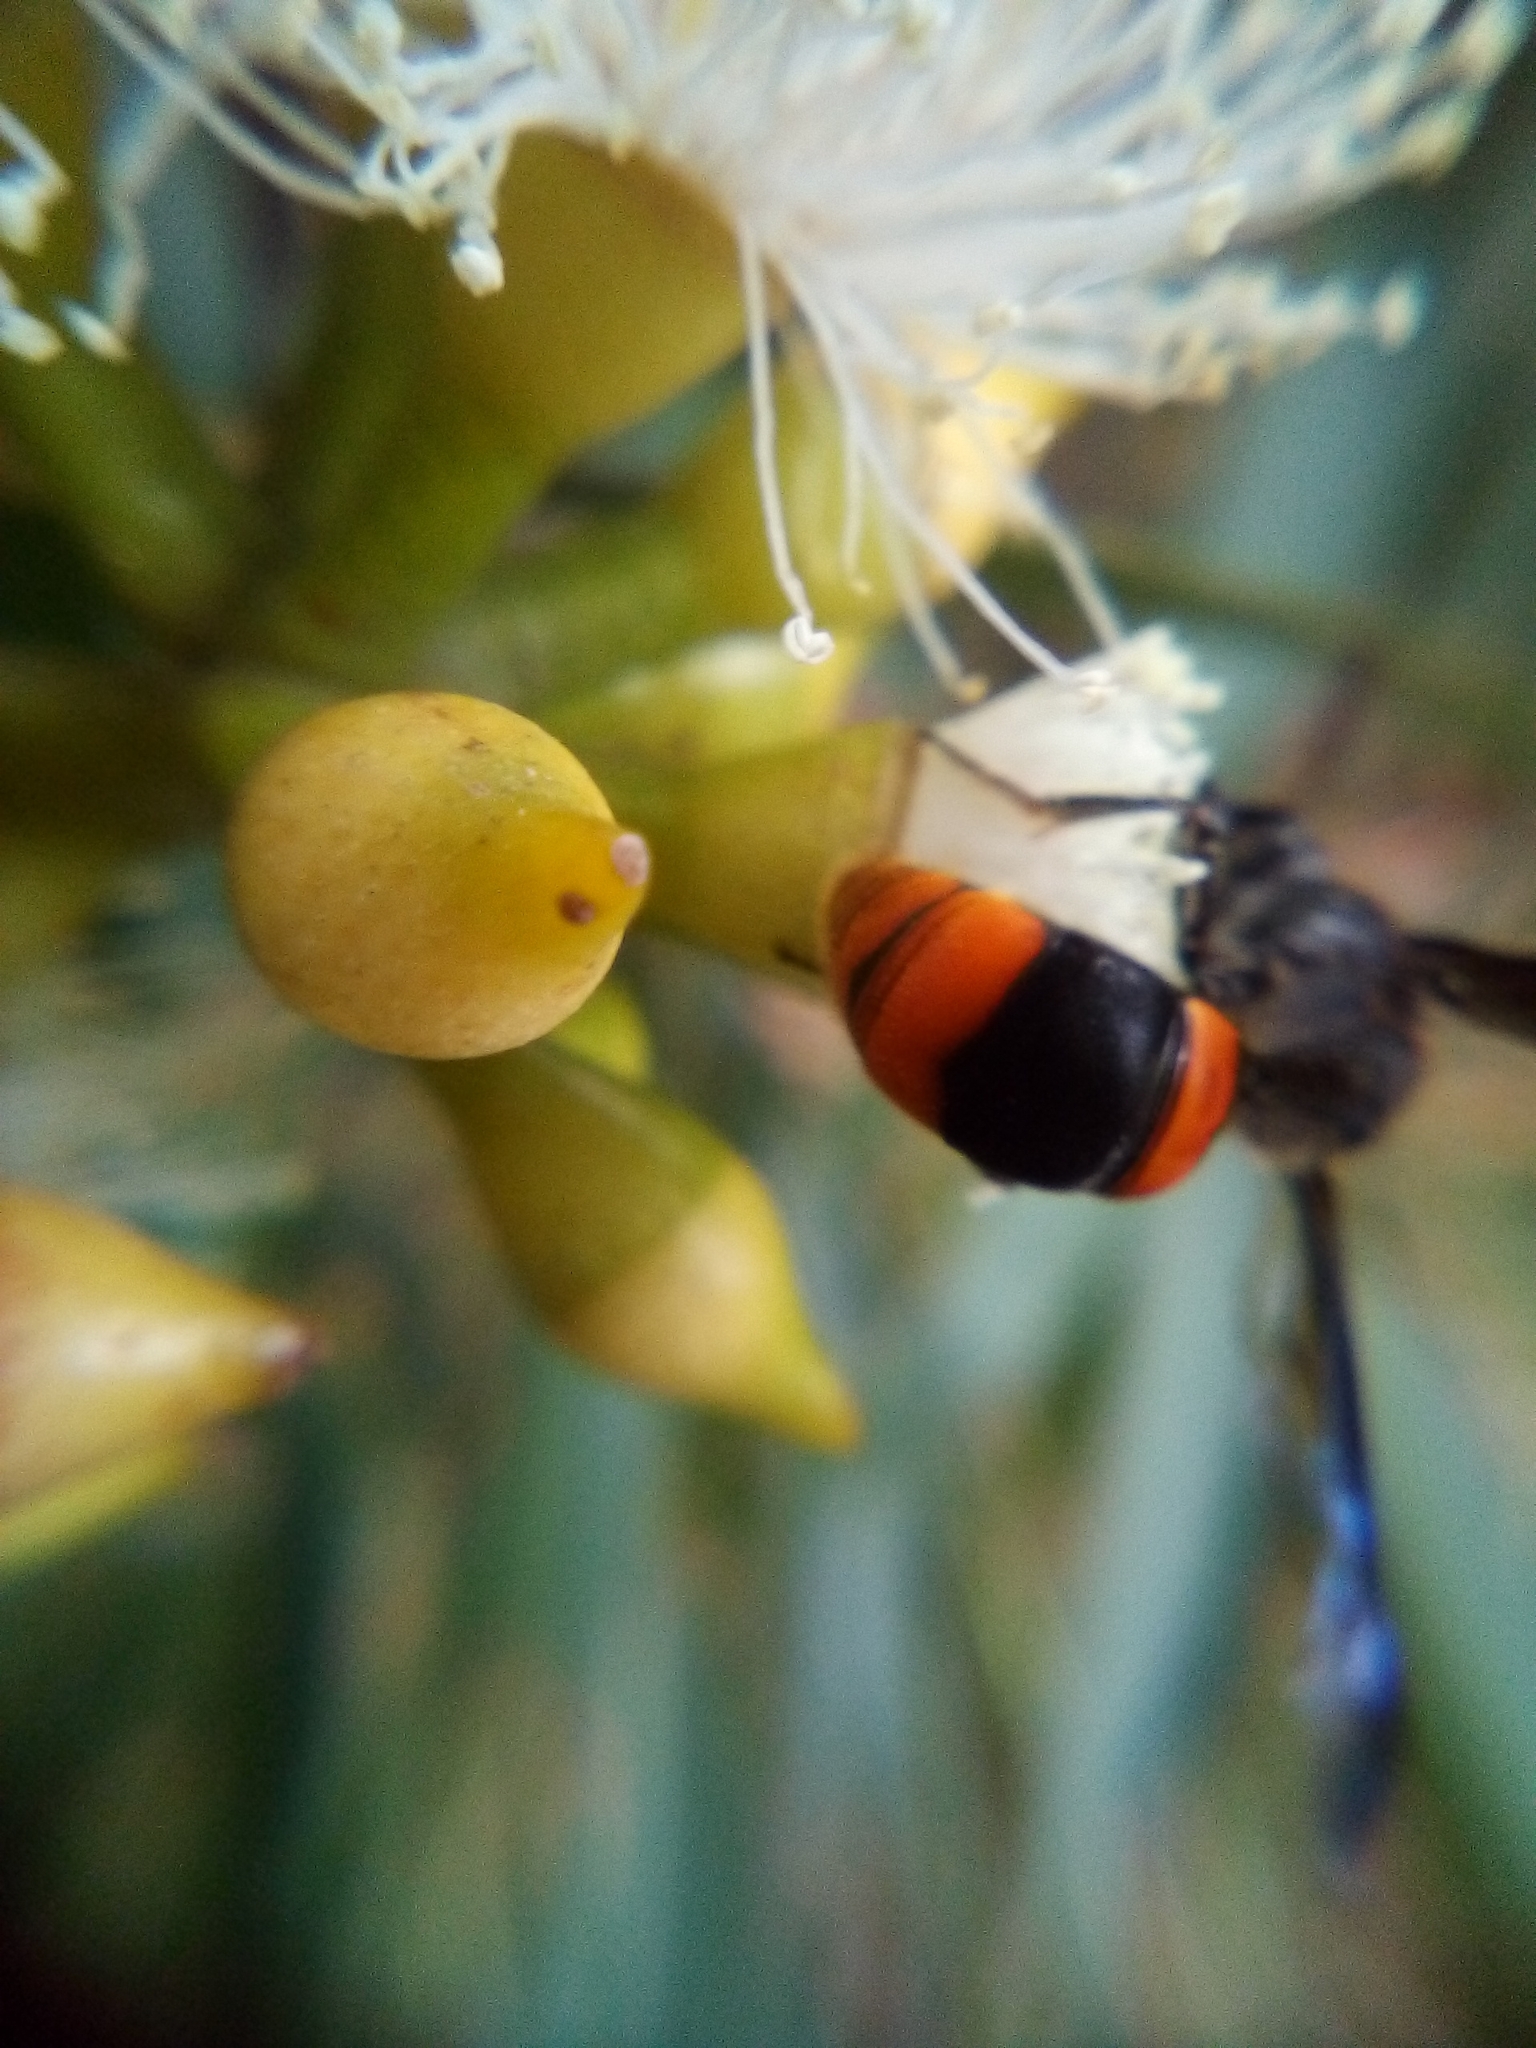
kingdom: Animalia
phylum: Arthropoda
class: Insecta
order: Hymenoptera
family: Colletidae
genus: Hyleoides
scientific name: Hyleoides concinna
